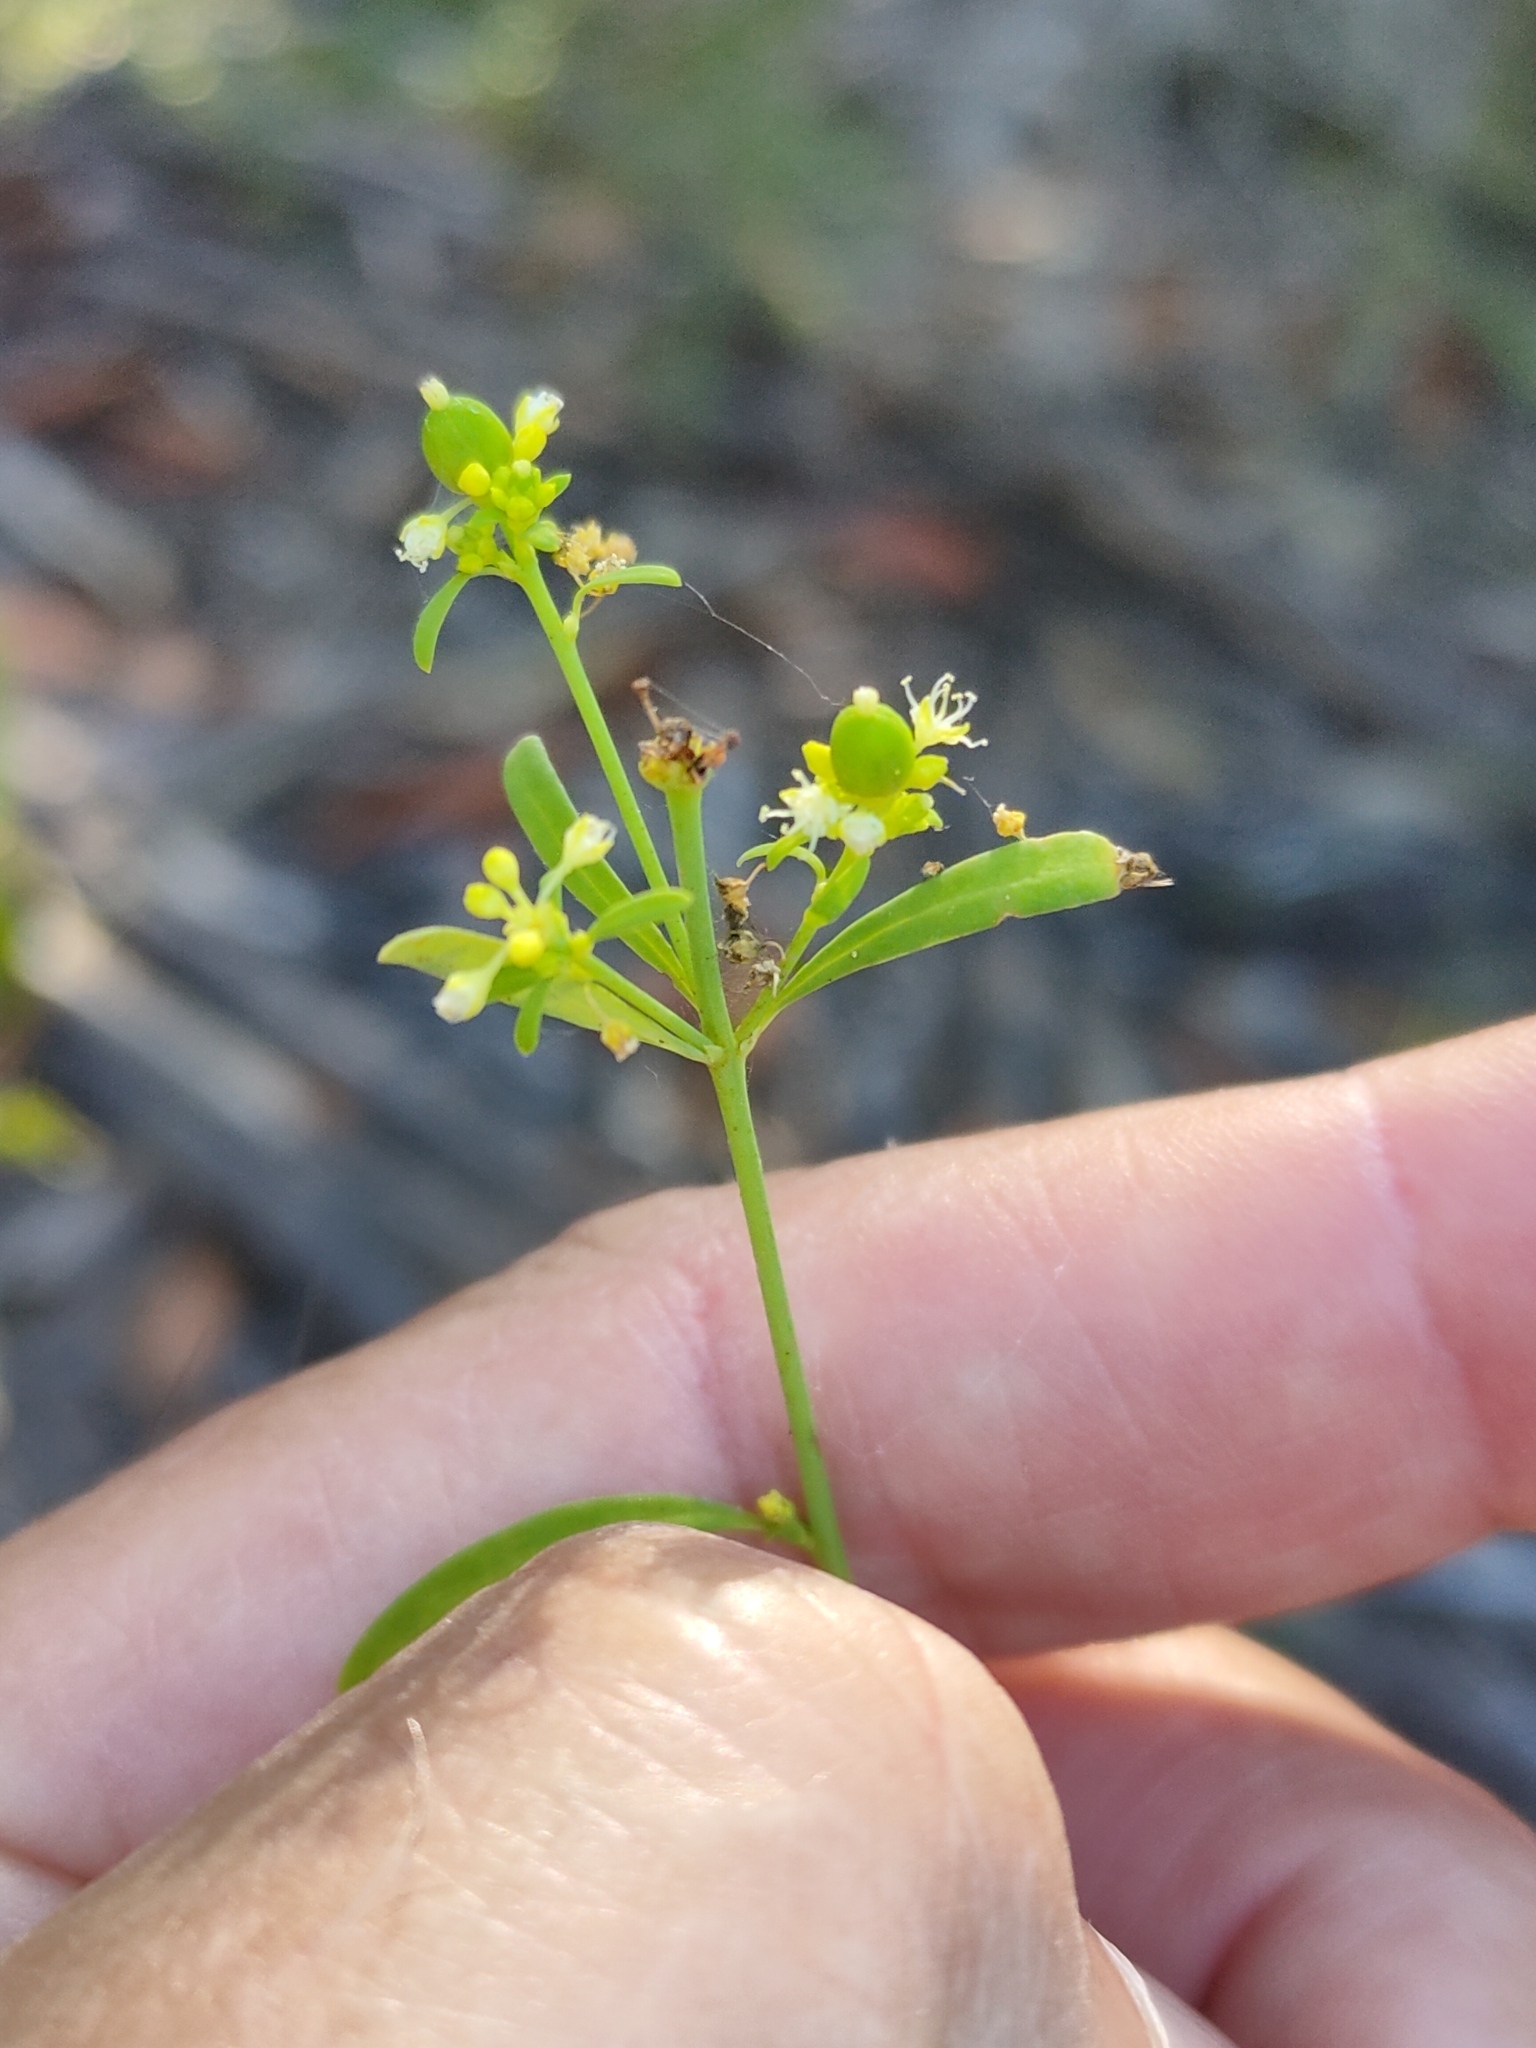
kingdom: Plantae
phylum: Tracheophyta
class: Magnoliopsida
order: Malpighiales
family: Euphorbiaceae
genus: Monotaxis
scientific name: Monotaxis macrophylla
